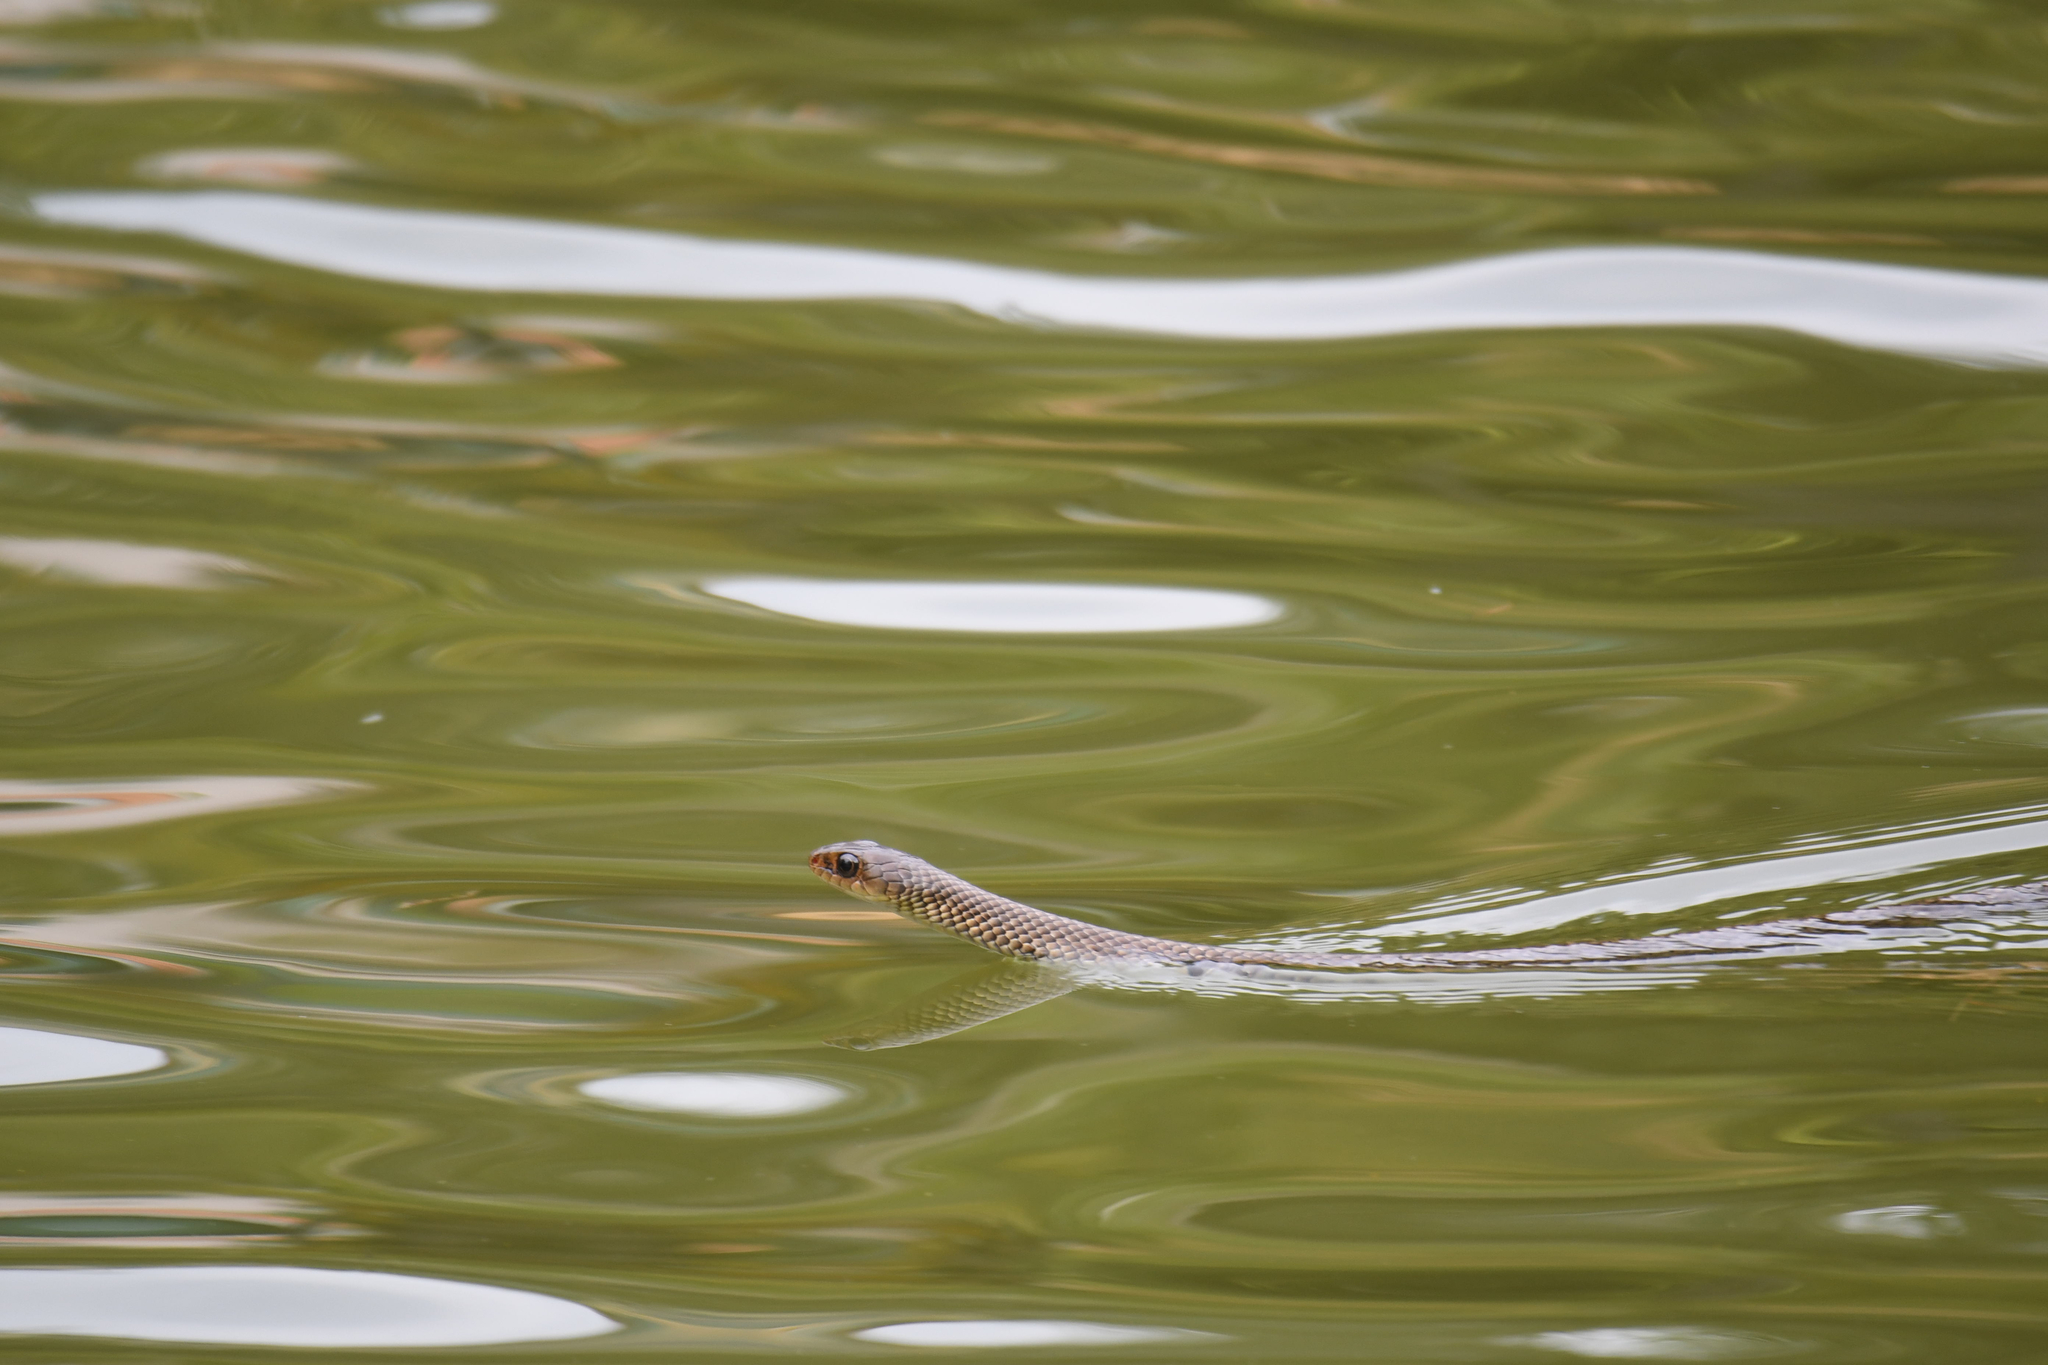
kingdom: Animalia
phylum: Chordata
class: Squamata
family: Colubridae
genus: Ptyas
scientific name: Ptyas korros
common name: Indo-chinese rat snake
